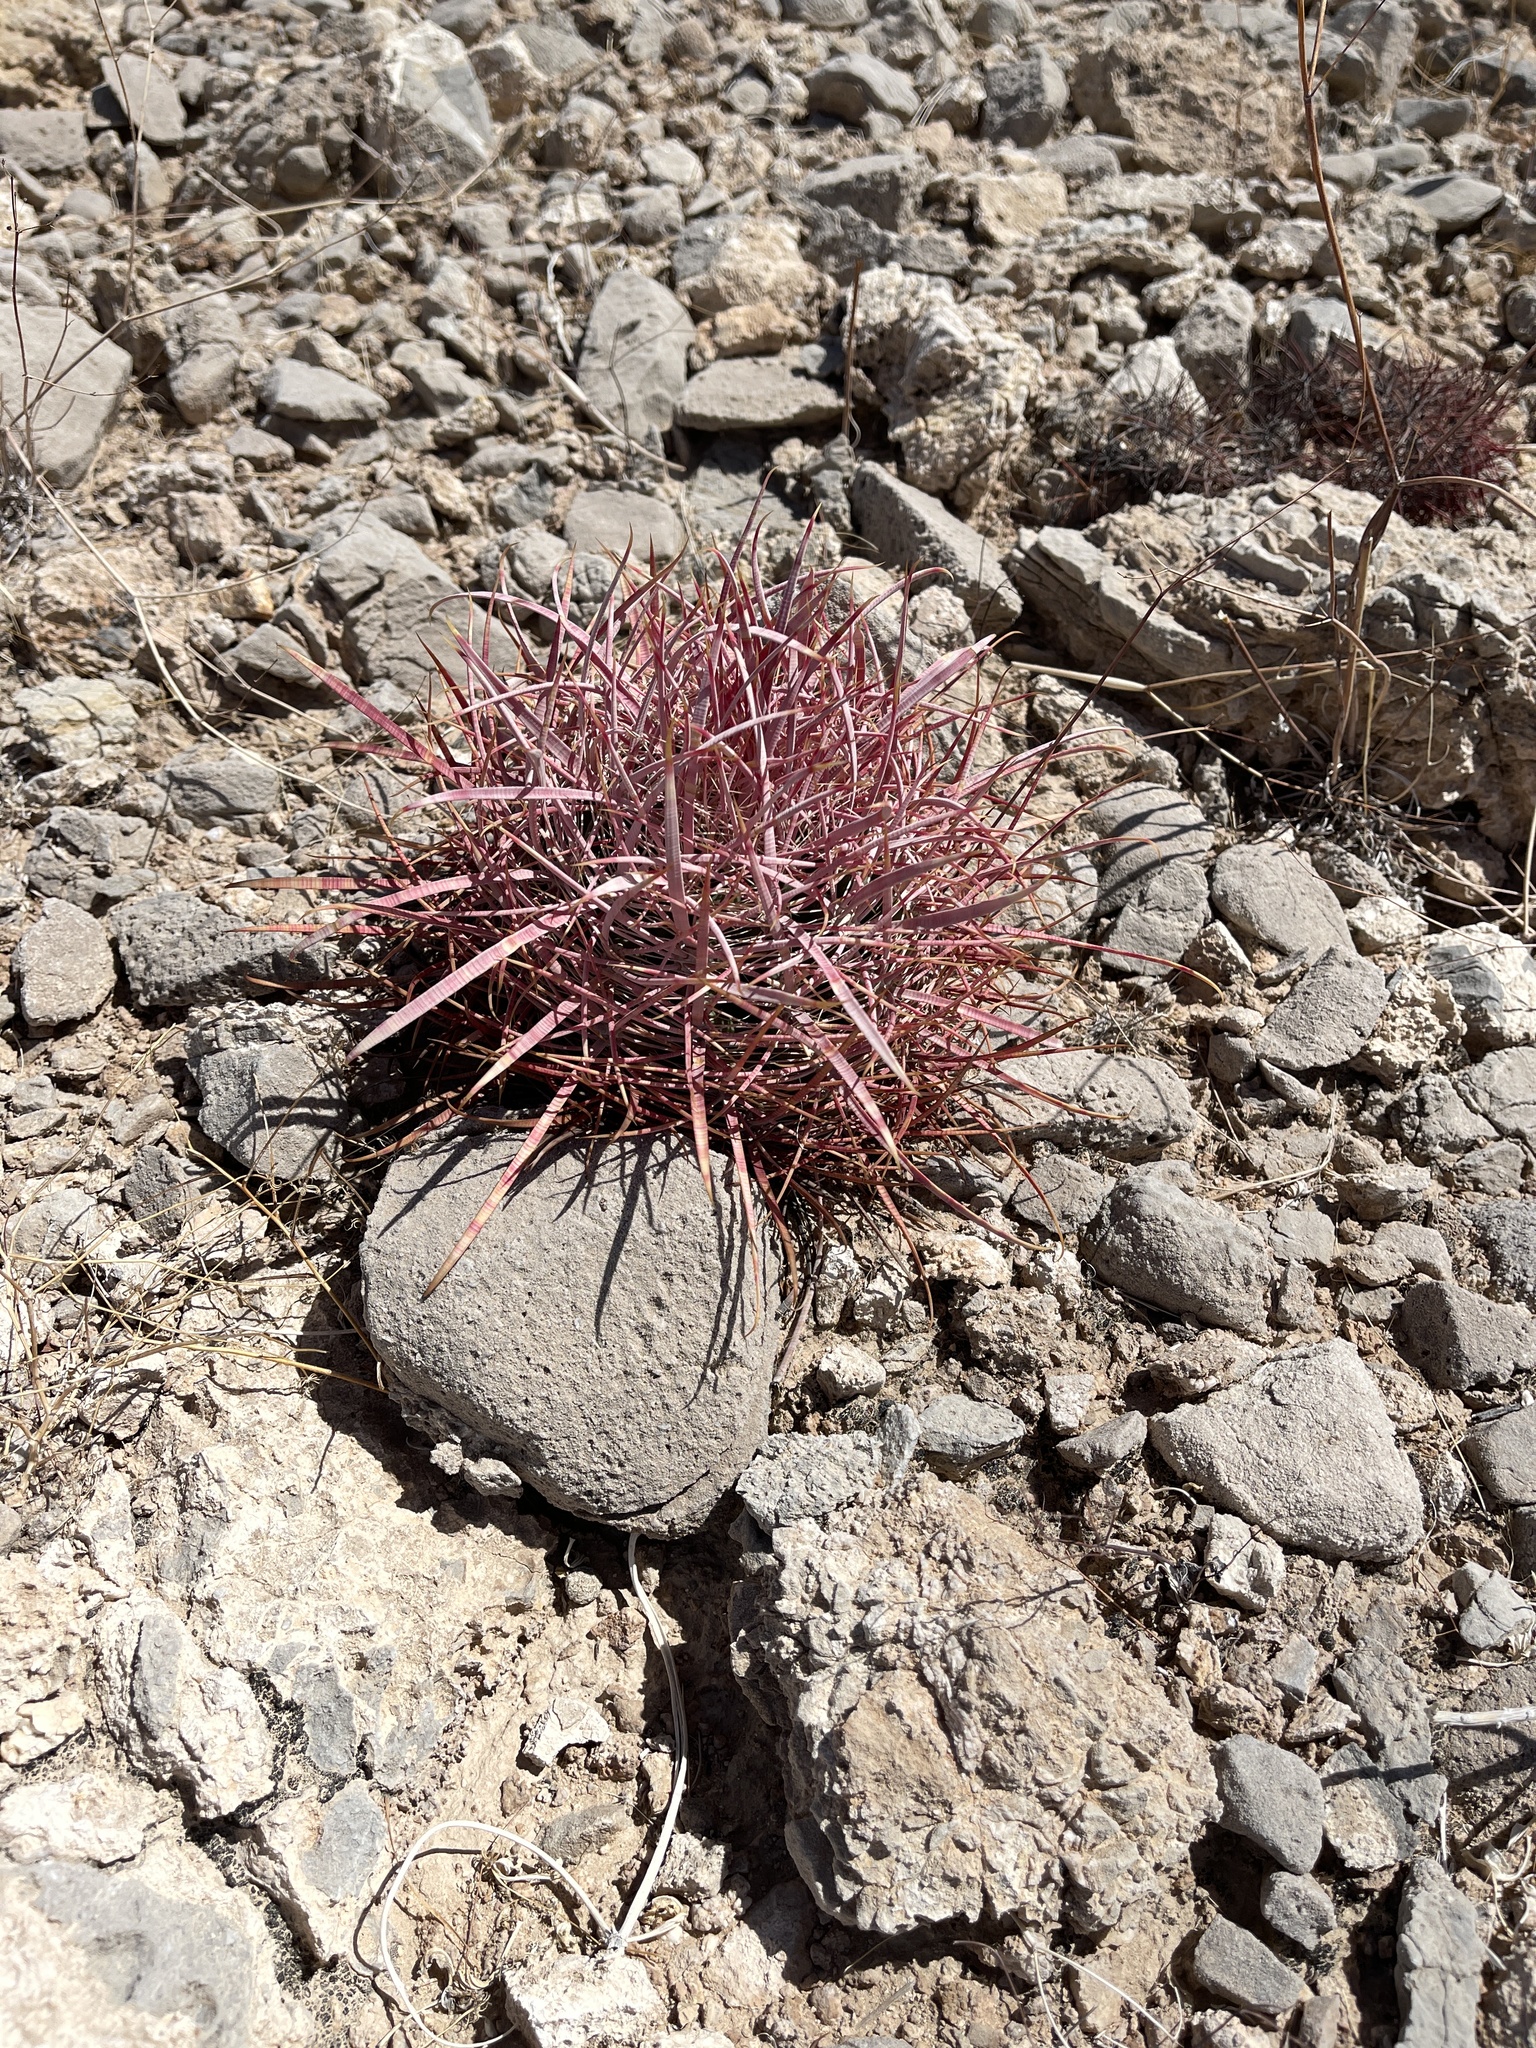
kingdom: Plantae
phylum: Tracheophyta
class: Magnoliopsida
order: Caryophyllales
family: Cactaceae
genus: Ferocactus
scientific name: Ferocactus cylindraceus
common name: California barrel cactus
